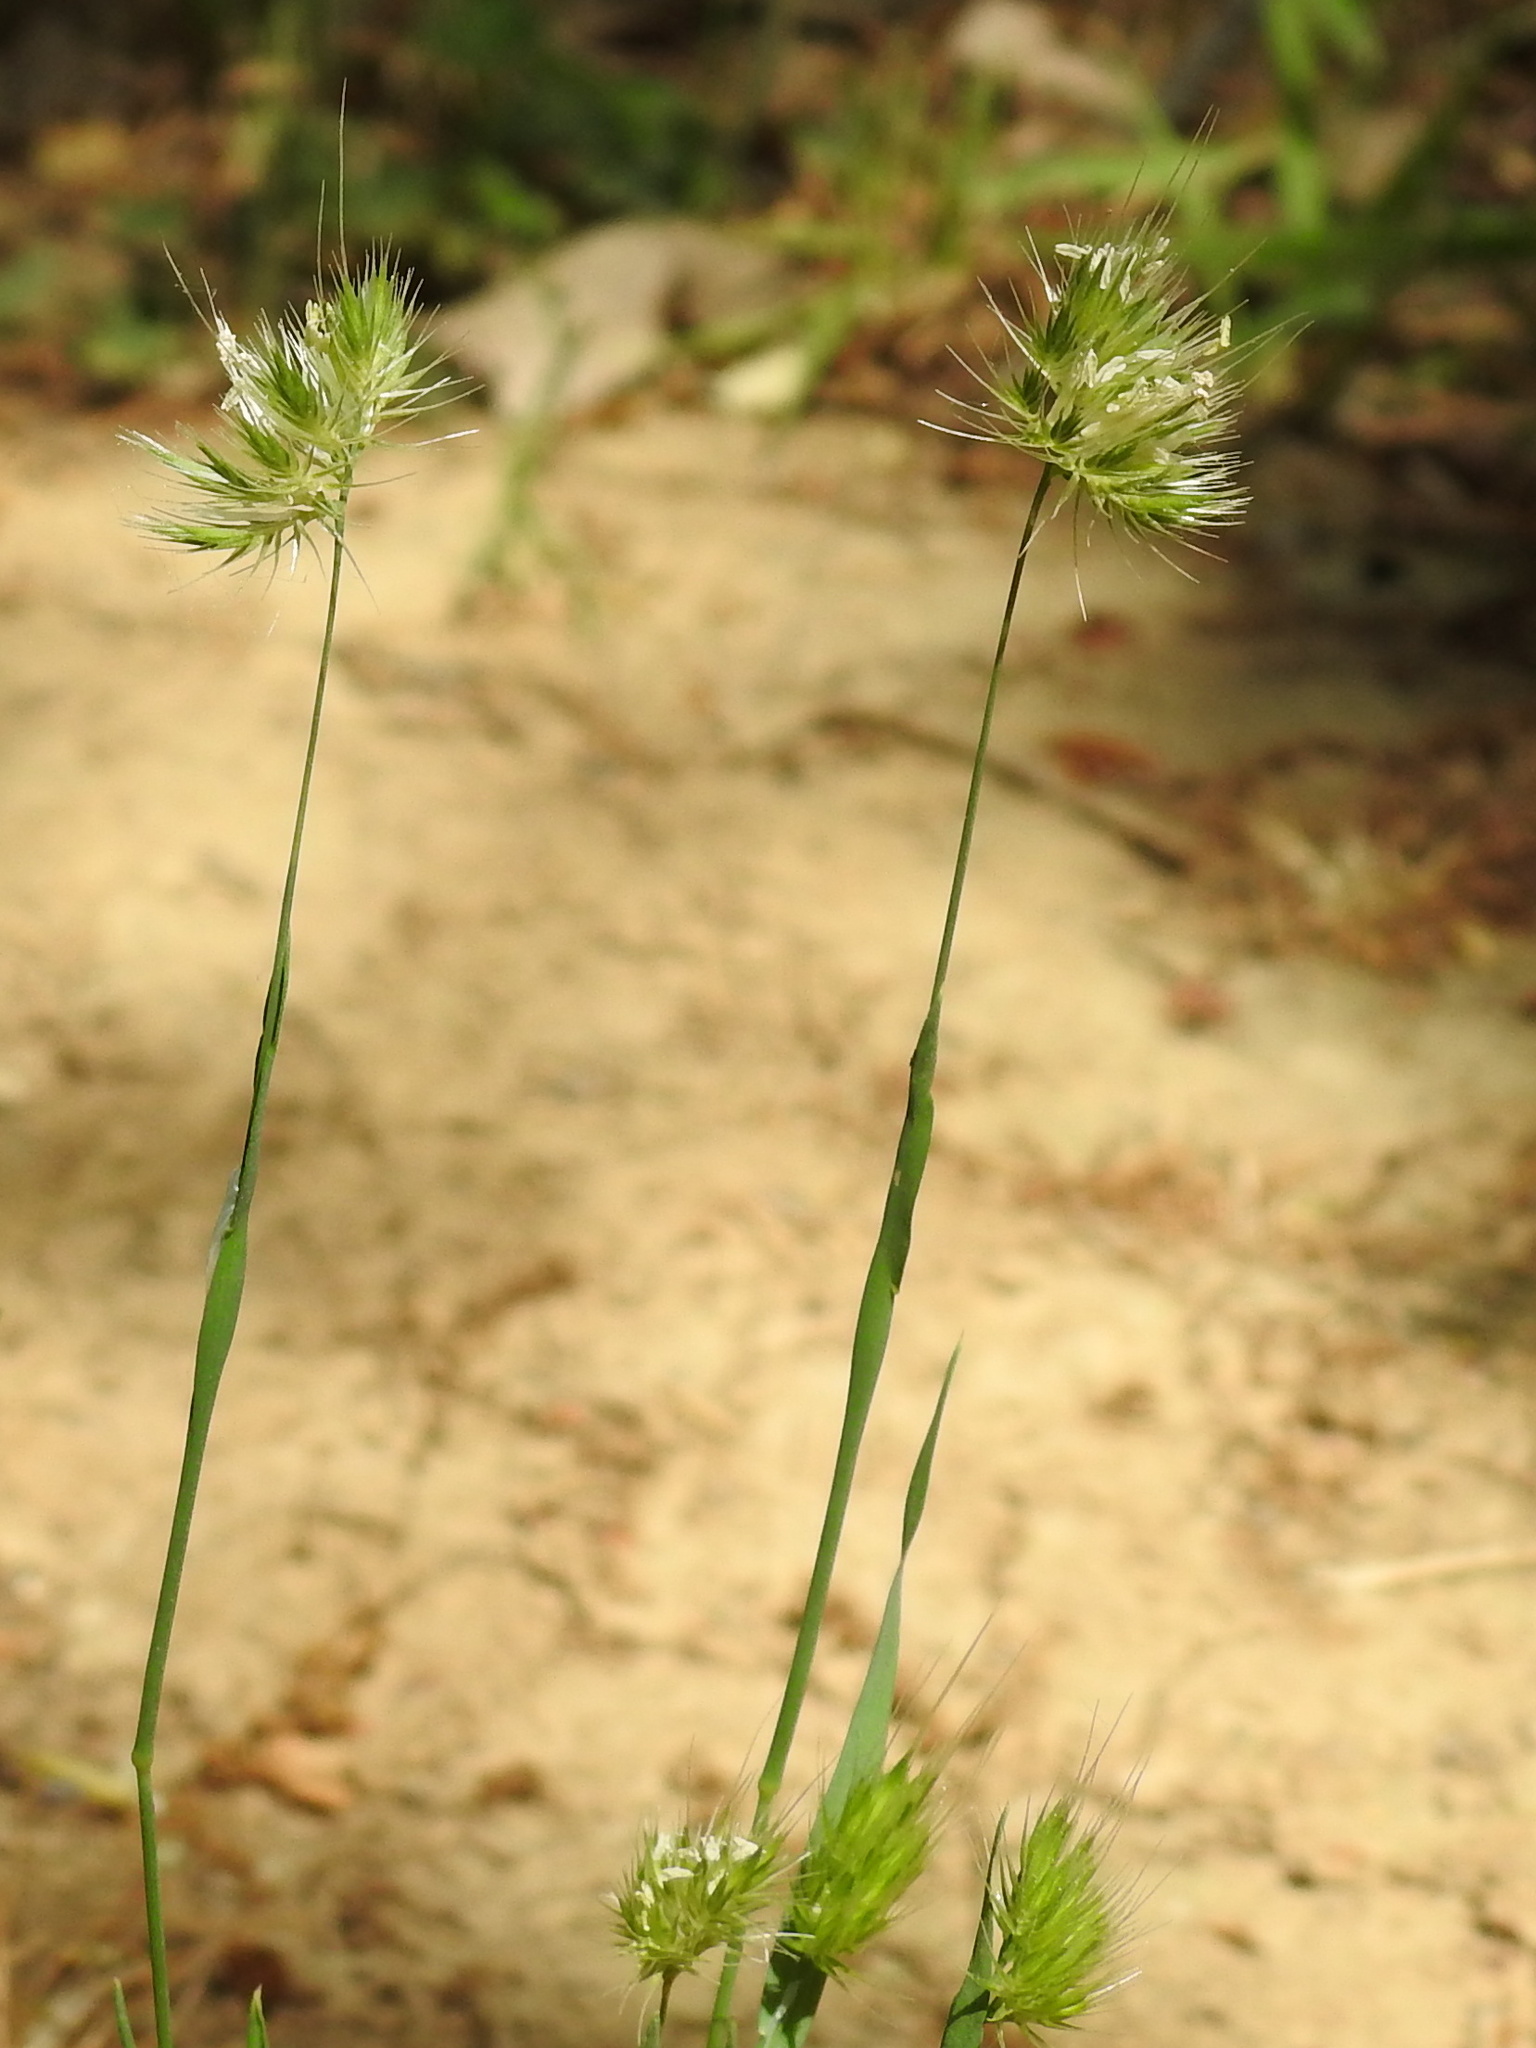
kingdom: Plantae
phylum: Tracheophyta
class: Liliopsida
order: Poales
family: Poaceae
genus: Cynosurus
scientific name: Cynosurus echinatus
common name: Rough dog's-tail
